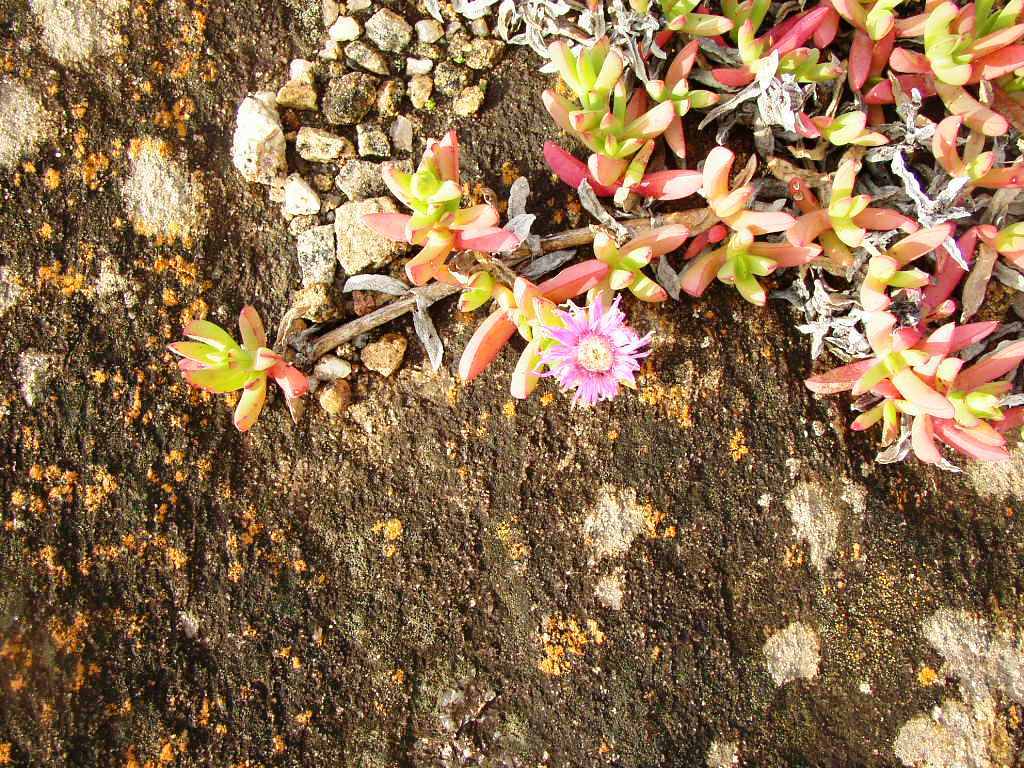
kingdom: Plantae
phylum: Tracheophyta
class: Magnoliopsida
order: Caryophyllales
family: Aizoaceae
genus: Carpobrotus
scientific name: Carpobrotus virescens
